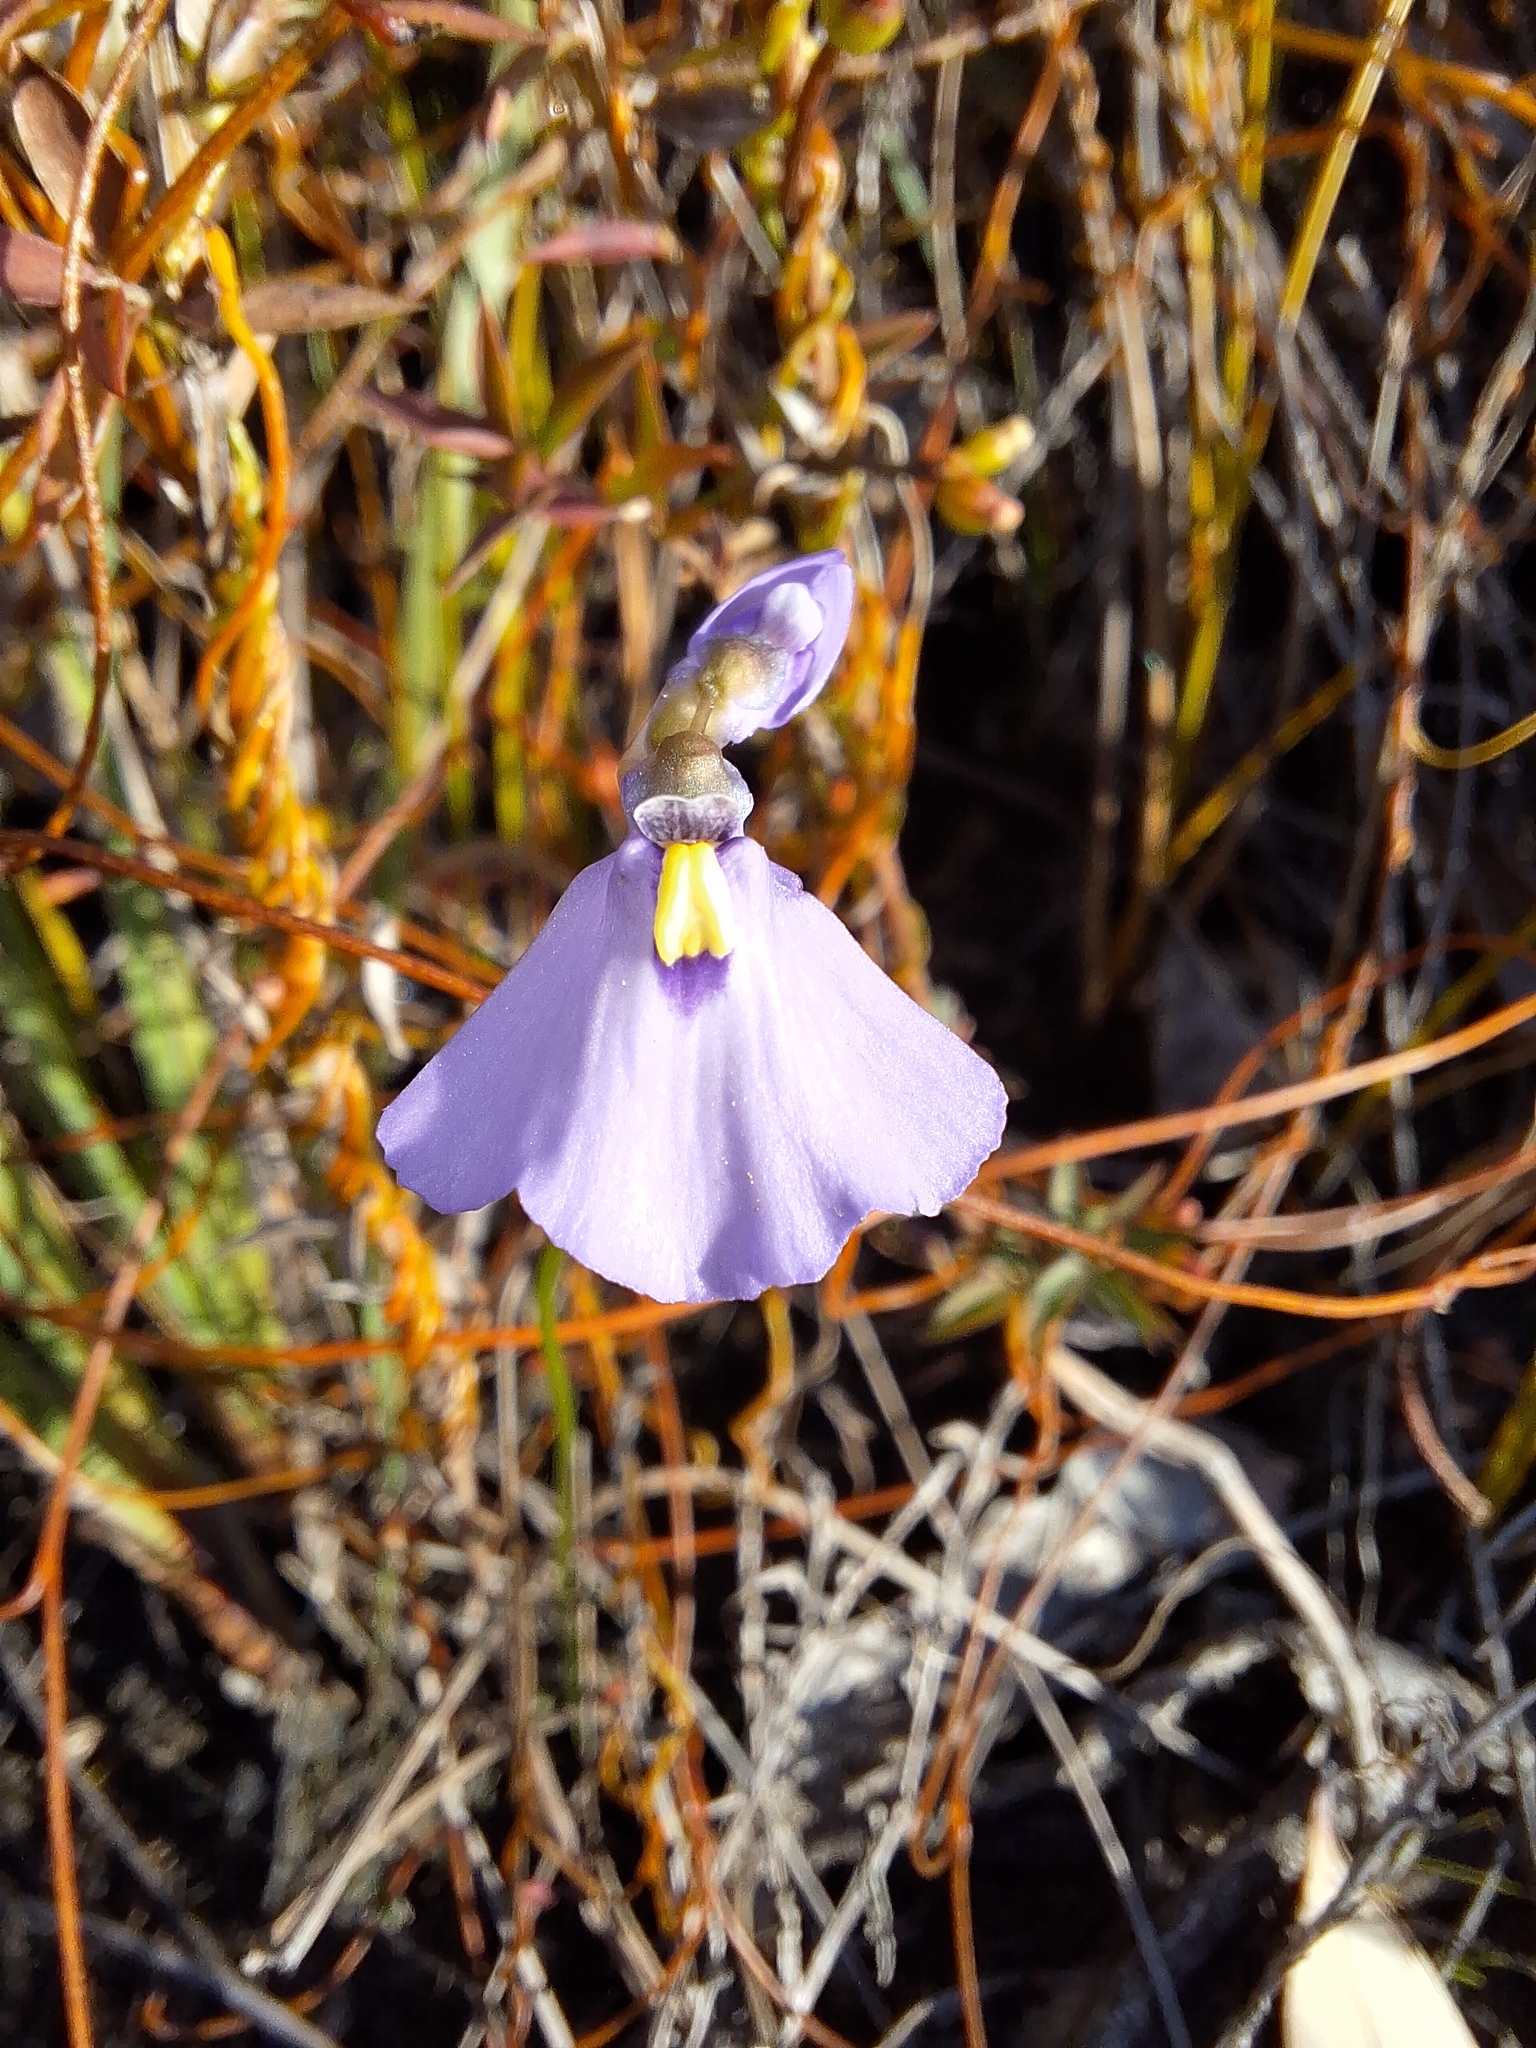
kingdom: Plantae
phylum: Tracheophyta
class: Magnoliopsida
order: Lamiales
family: Lentibulariaceae
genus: Utricularia
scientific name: Utricularia barkeri
